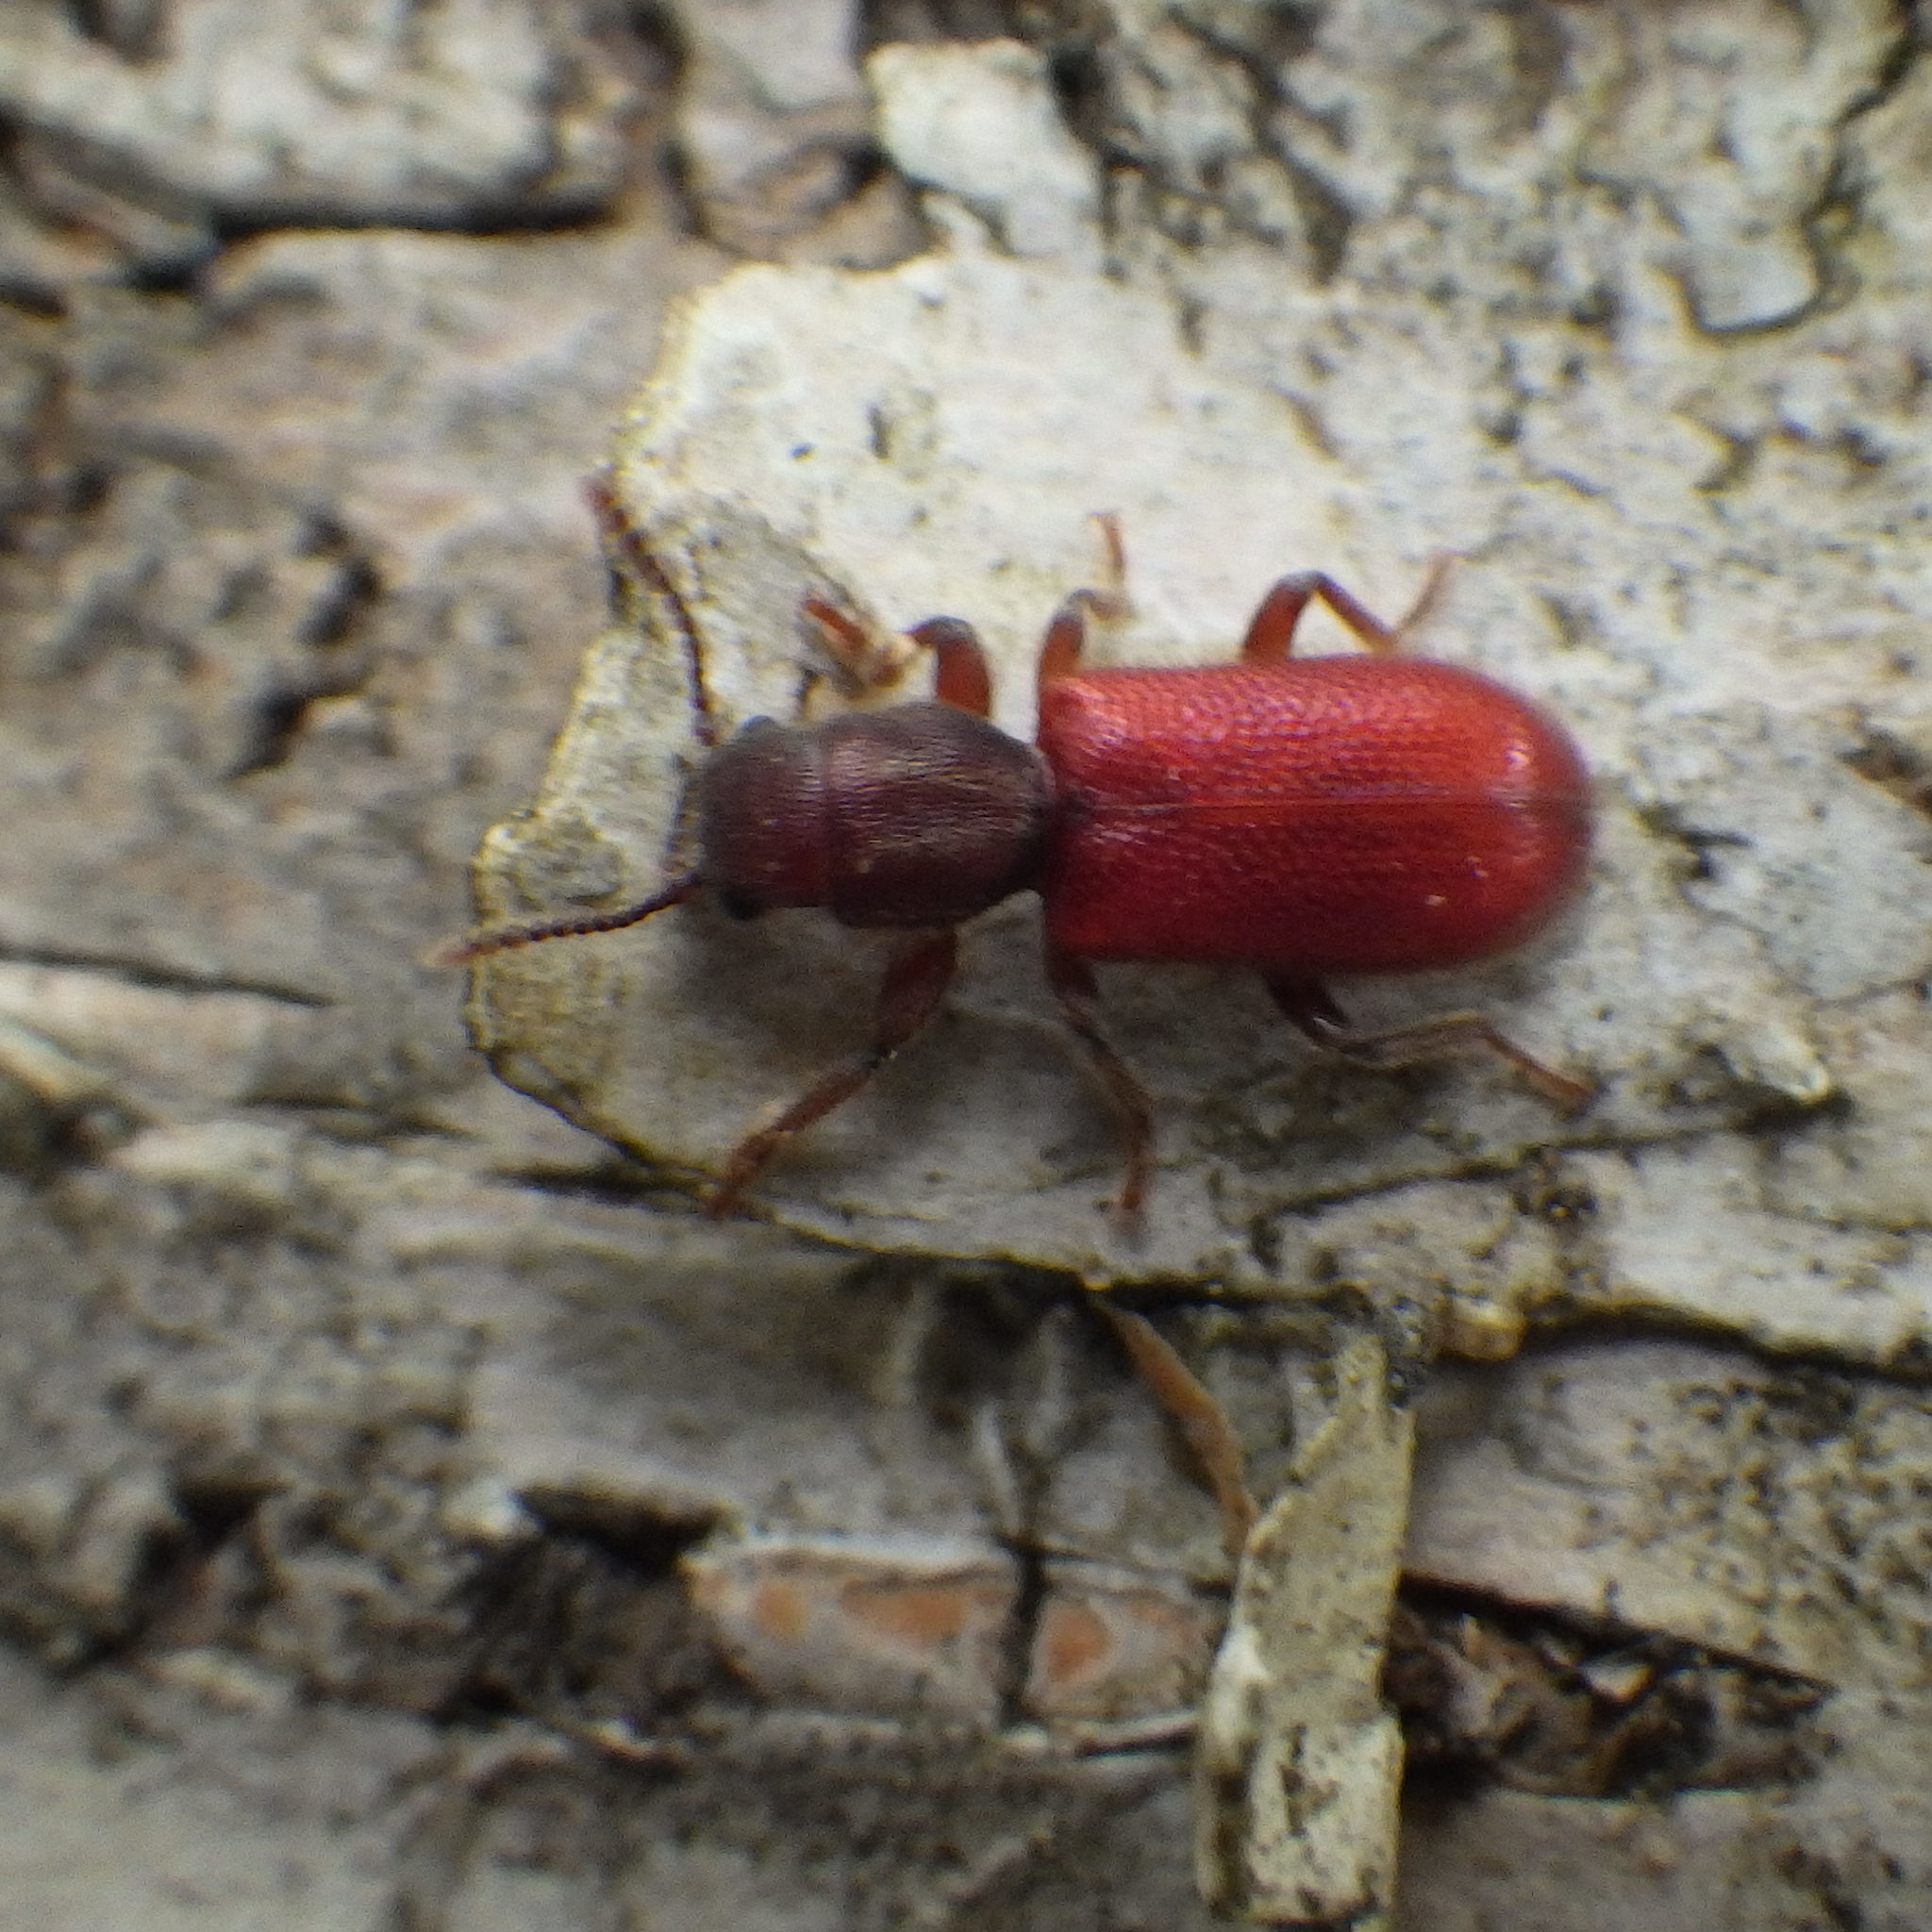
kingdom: Animalia
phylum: Arthropoda
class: Insecta
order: Coleoptera
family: Thanerocleridae
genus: Zenodosus
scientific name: Zenodosus sanguineus
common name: Blood-colored checkered beetle
